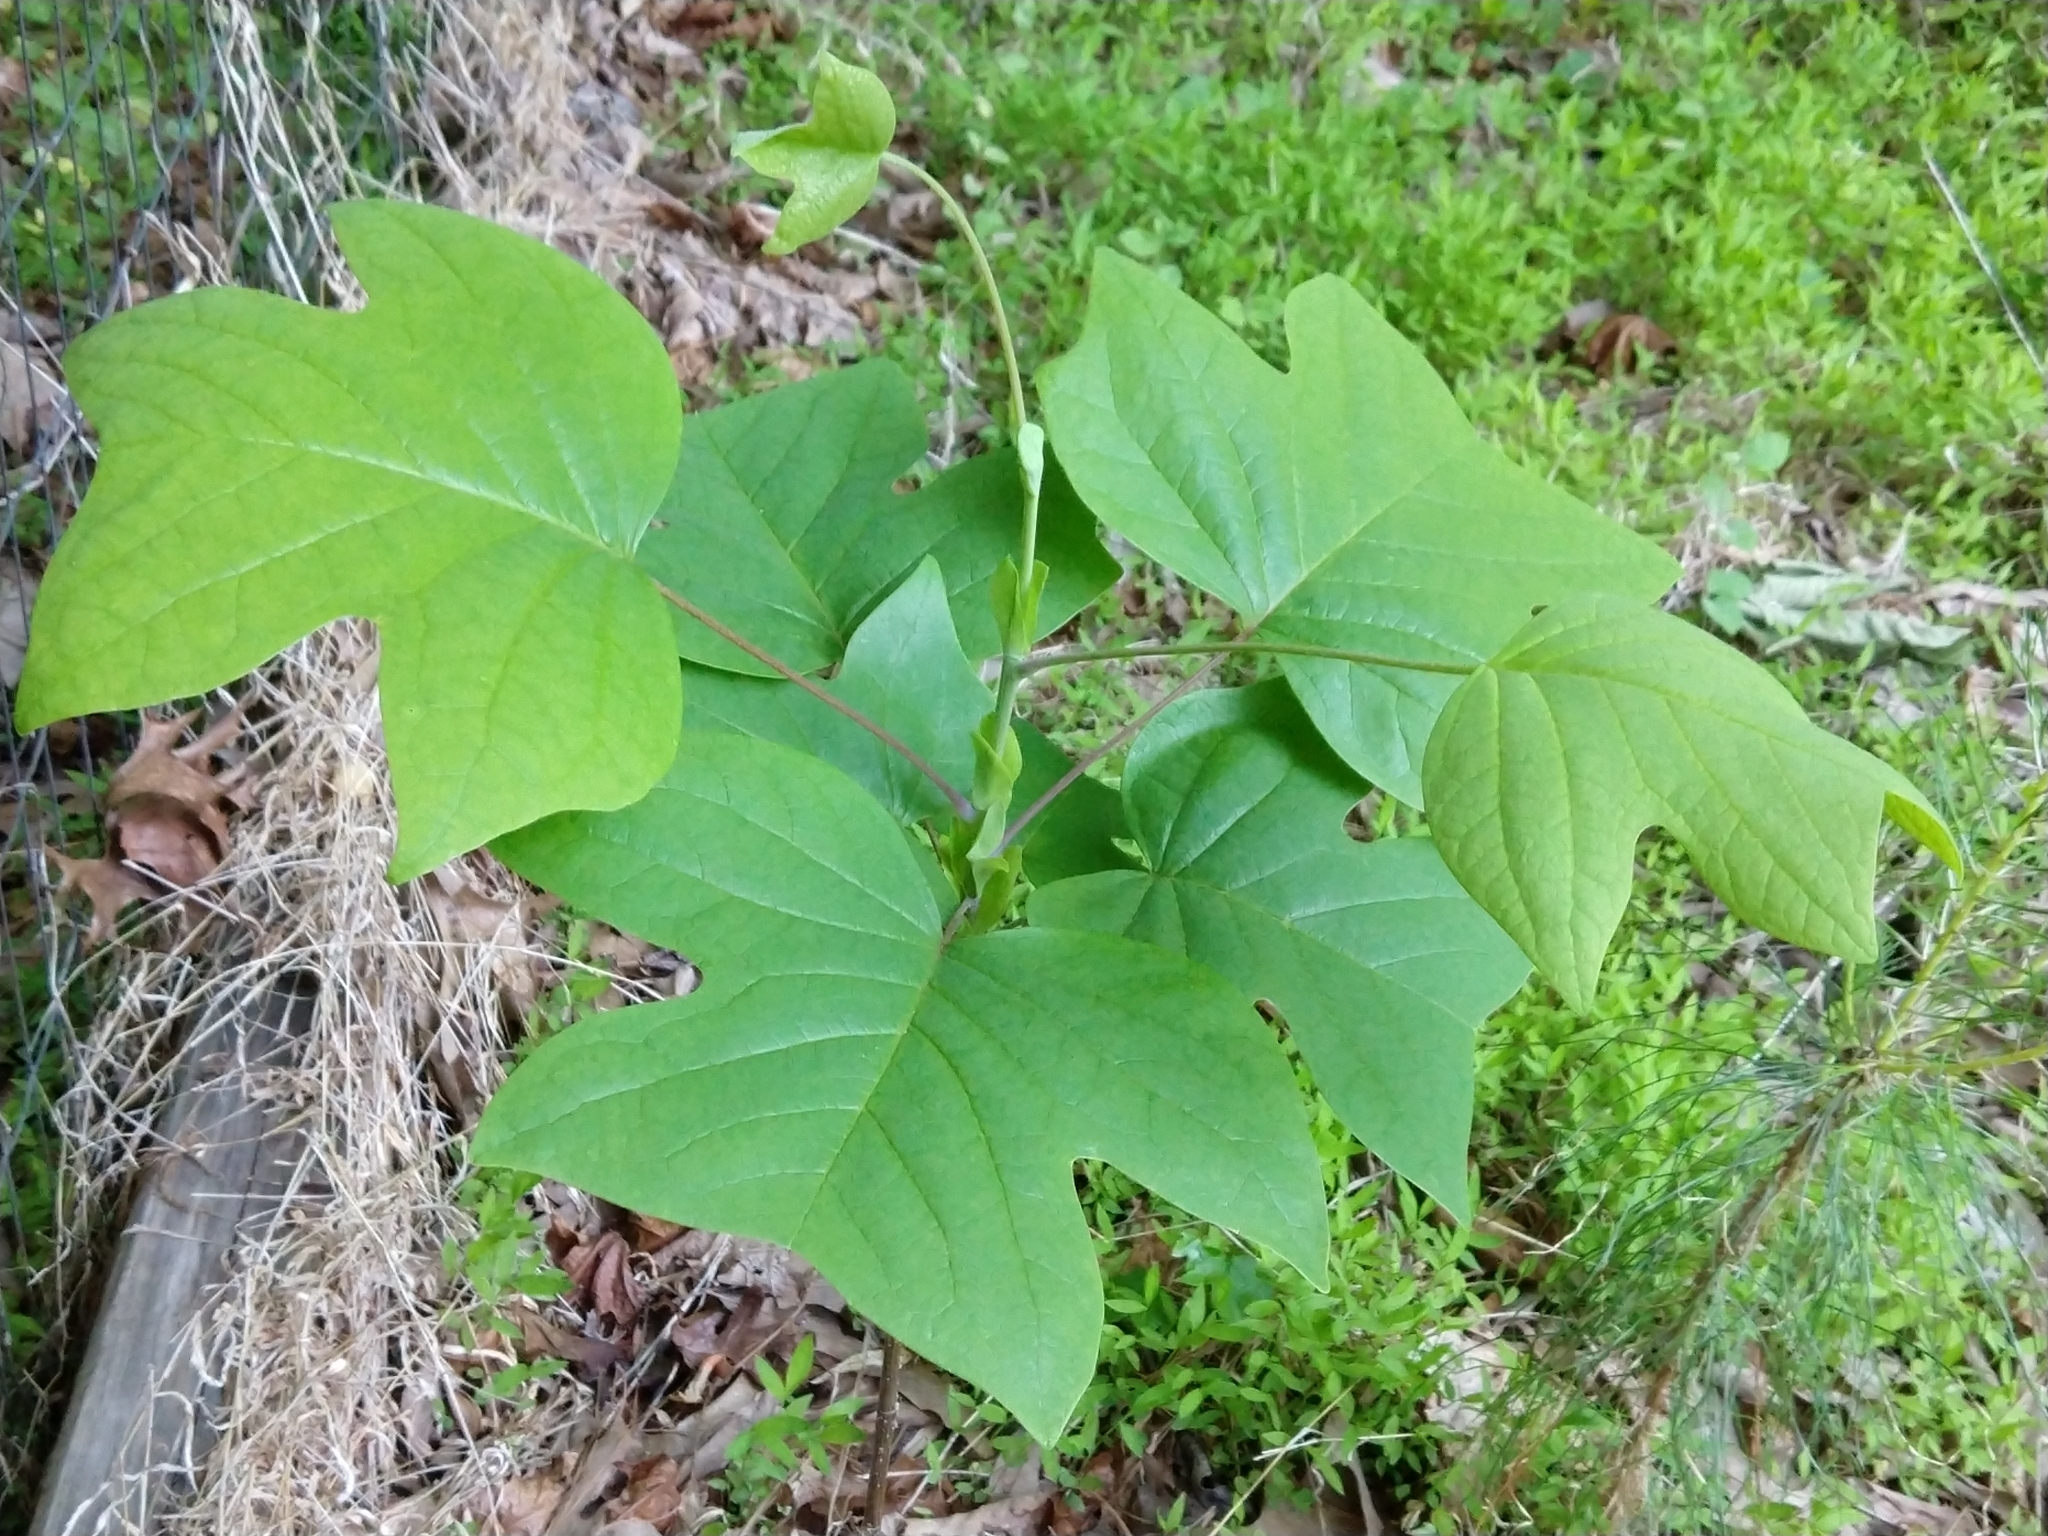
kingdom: Plantae
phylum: Tracheophyta
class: Magnoliopsida
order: Magnoliales
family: Magnoliaceae
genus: Liriodendron
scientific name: Liriodendron tulipifera
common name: Tulip tree
